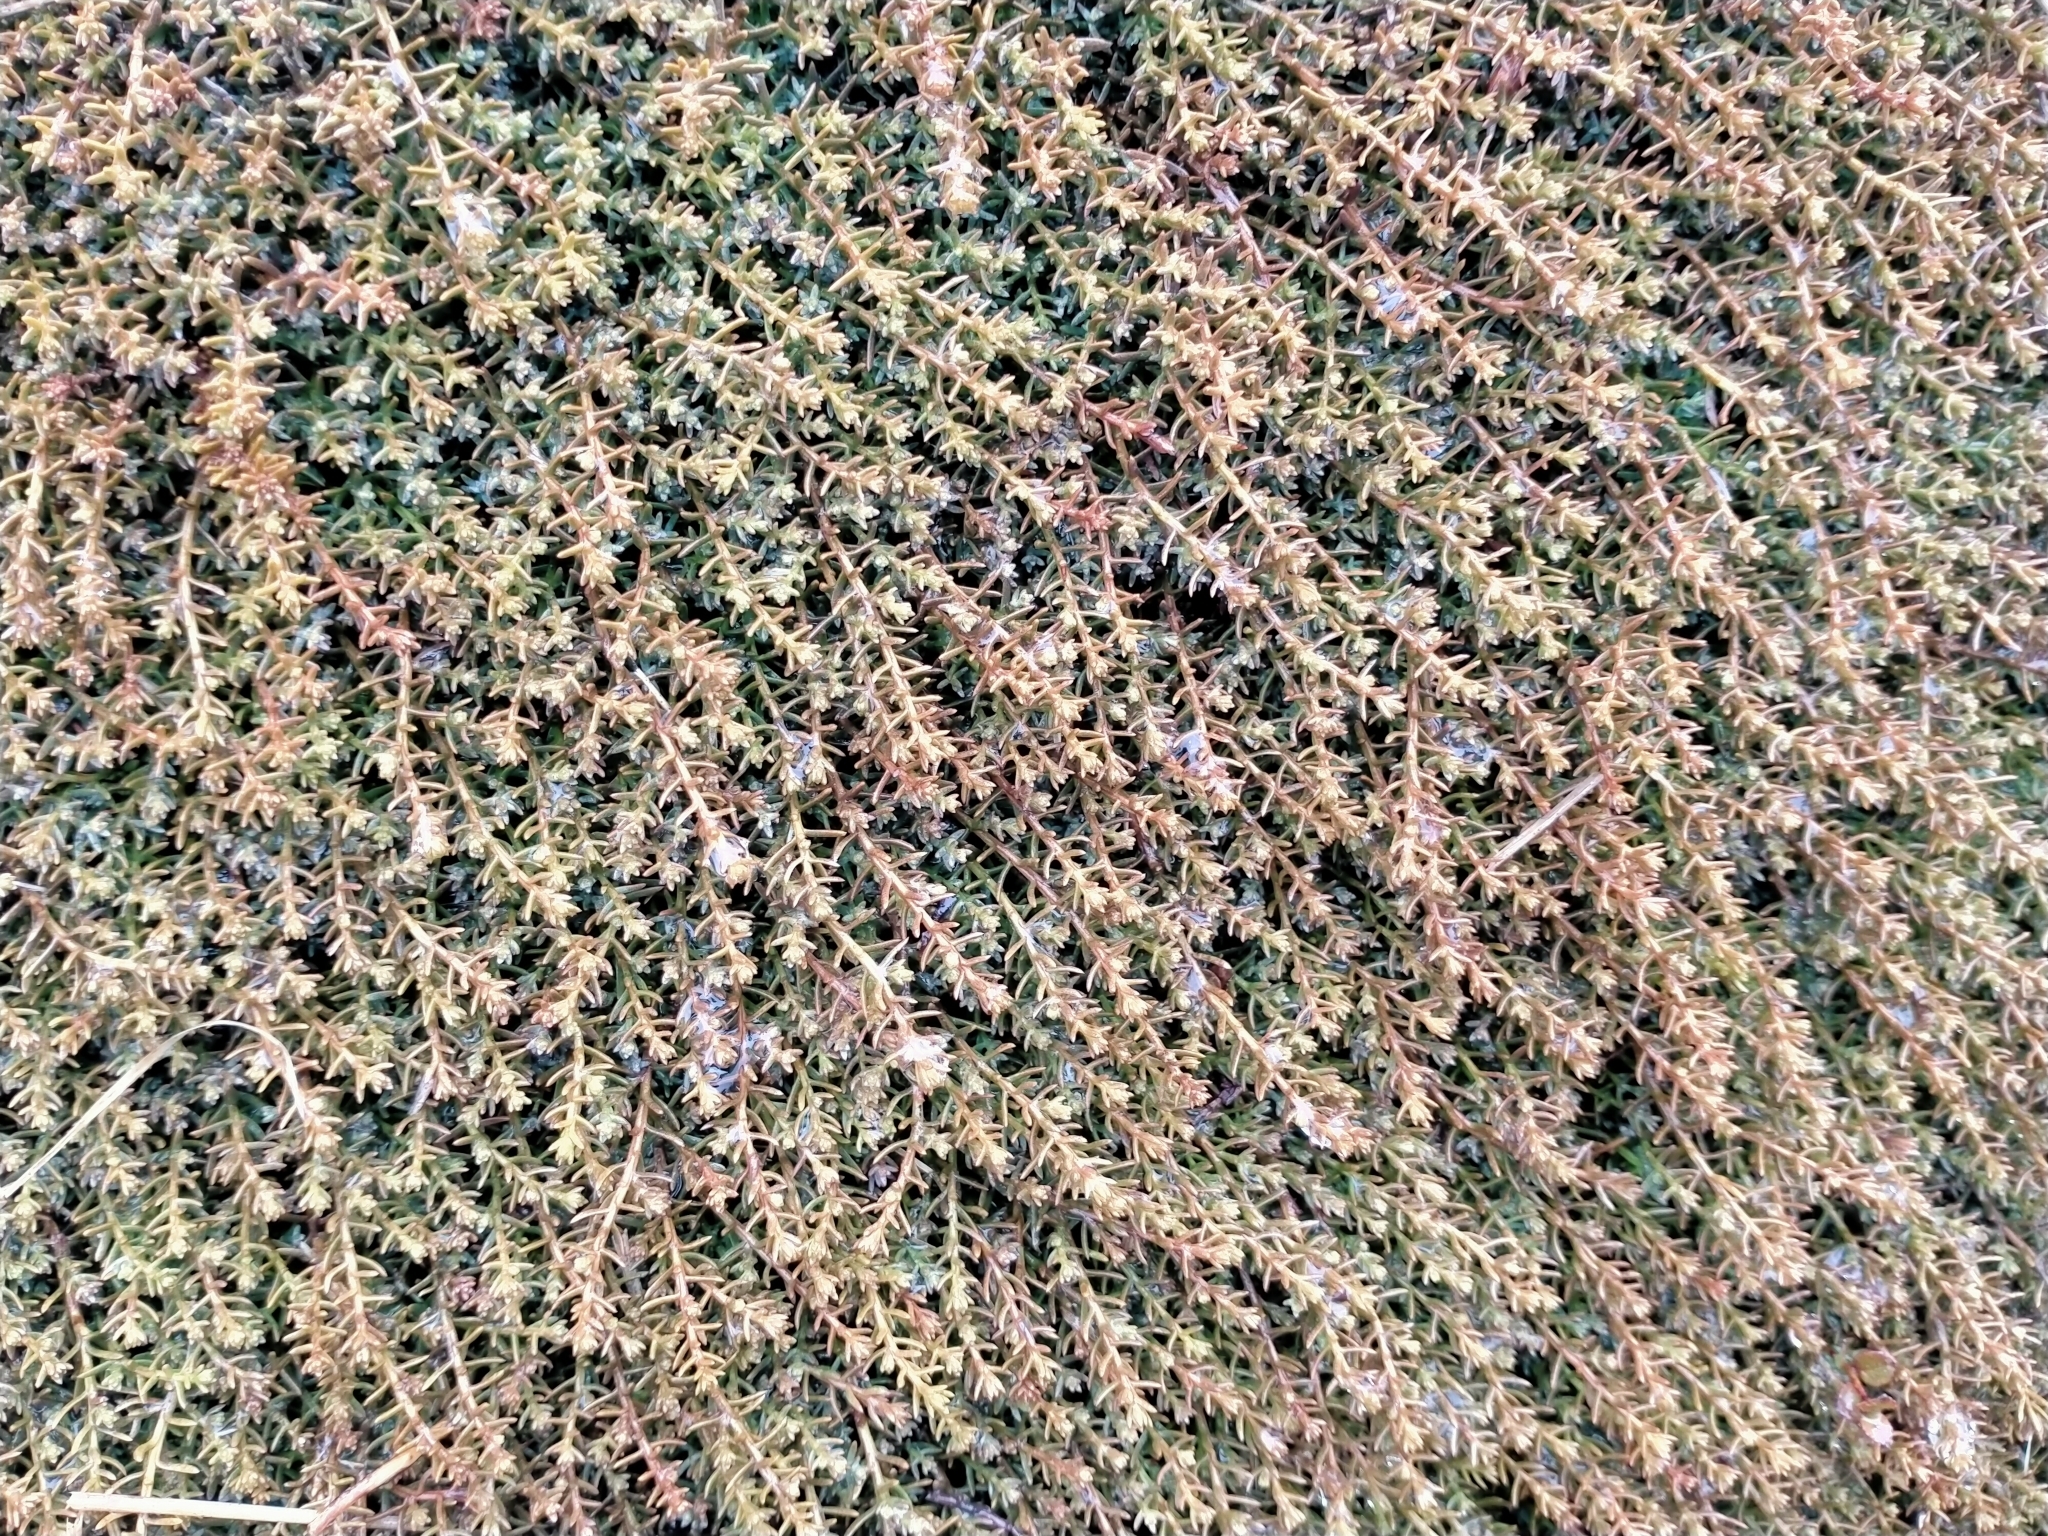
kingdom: Plantae
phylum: Tracheophyta
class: Pinopsida
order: Pinales
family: Podocarpaceae
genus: Lepidothamnus
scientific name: Lepidothamnus laxifolius
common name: Pygmy pine
